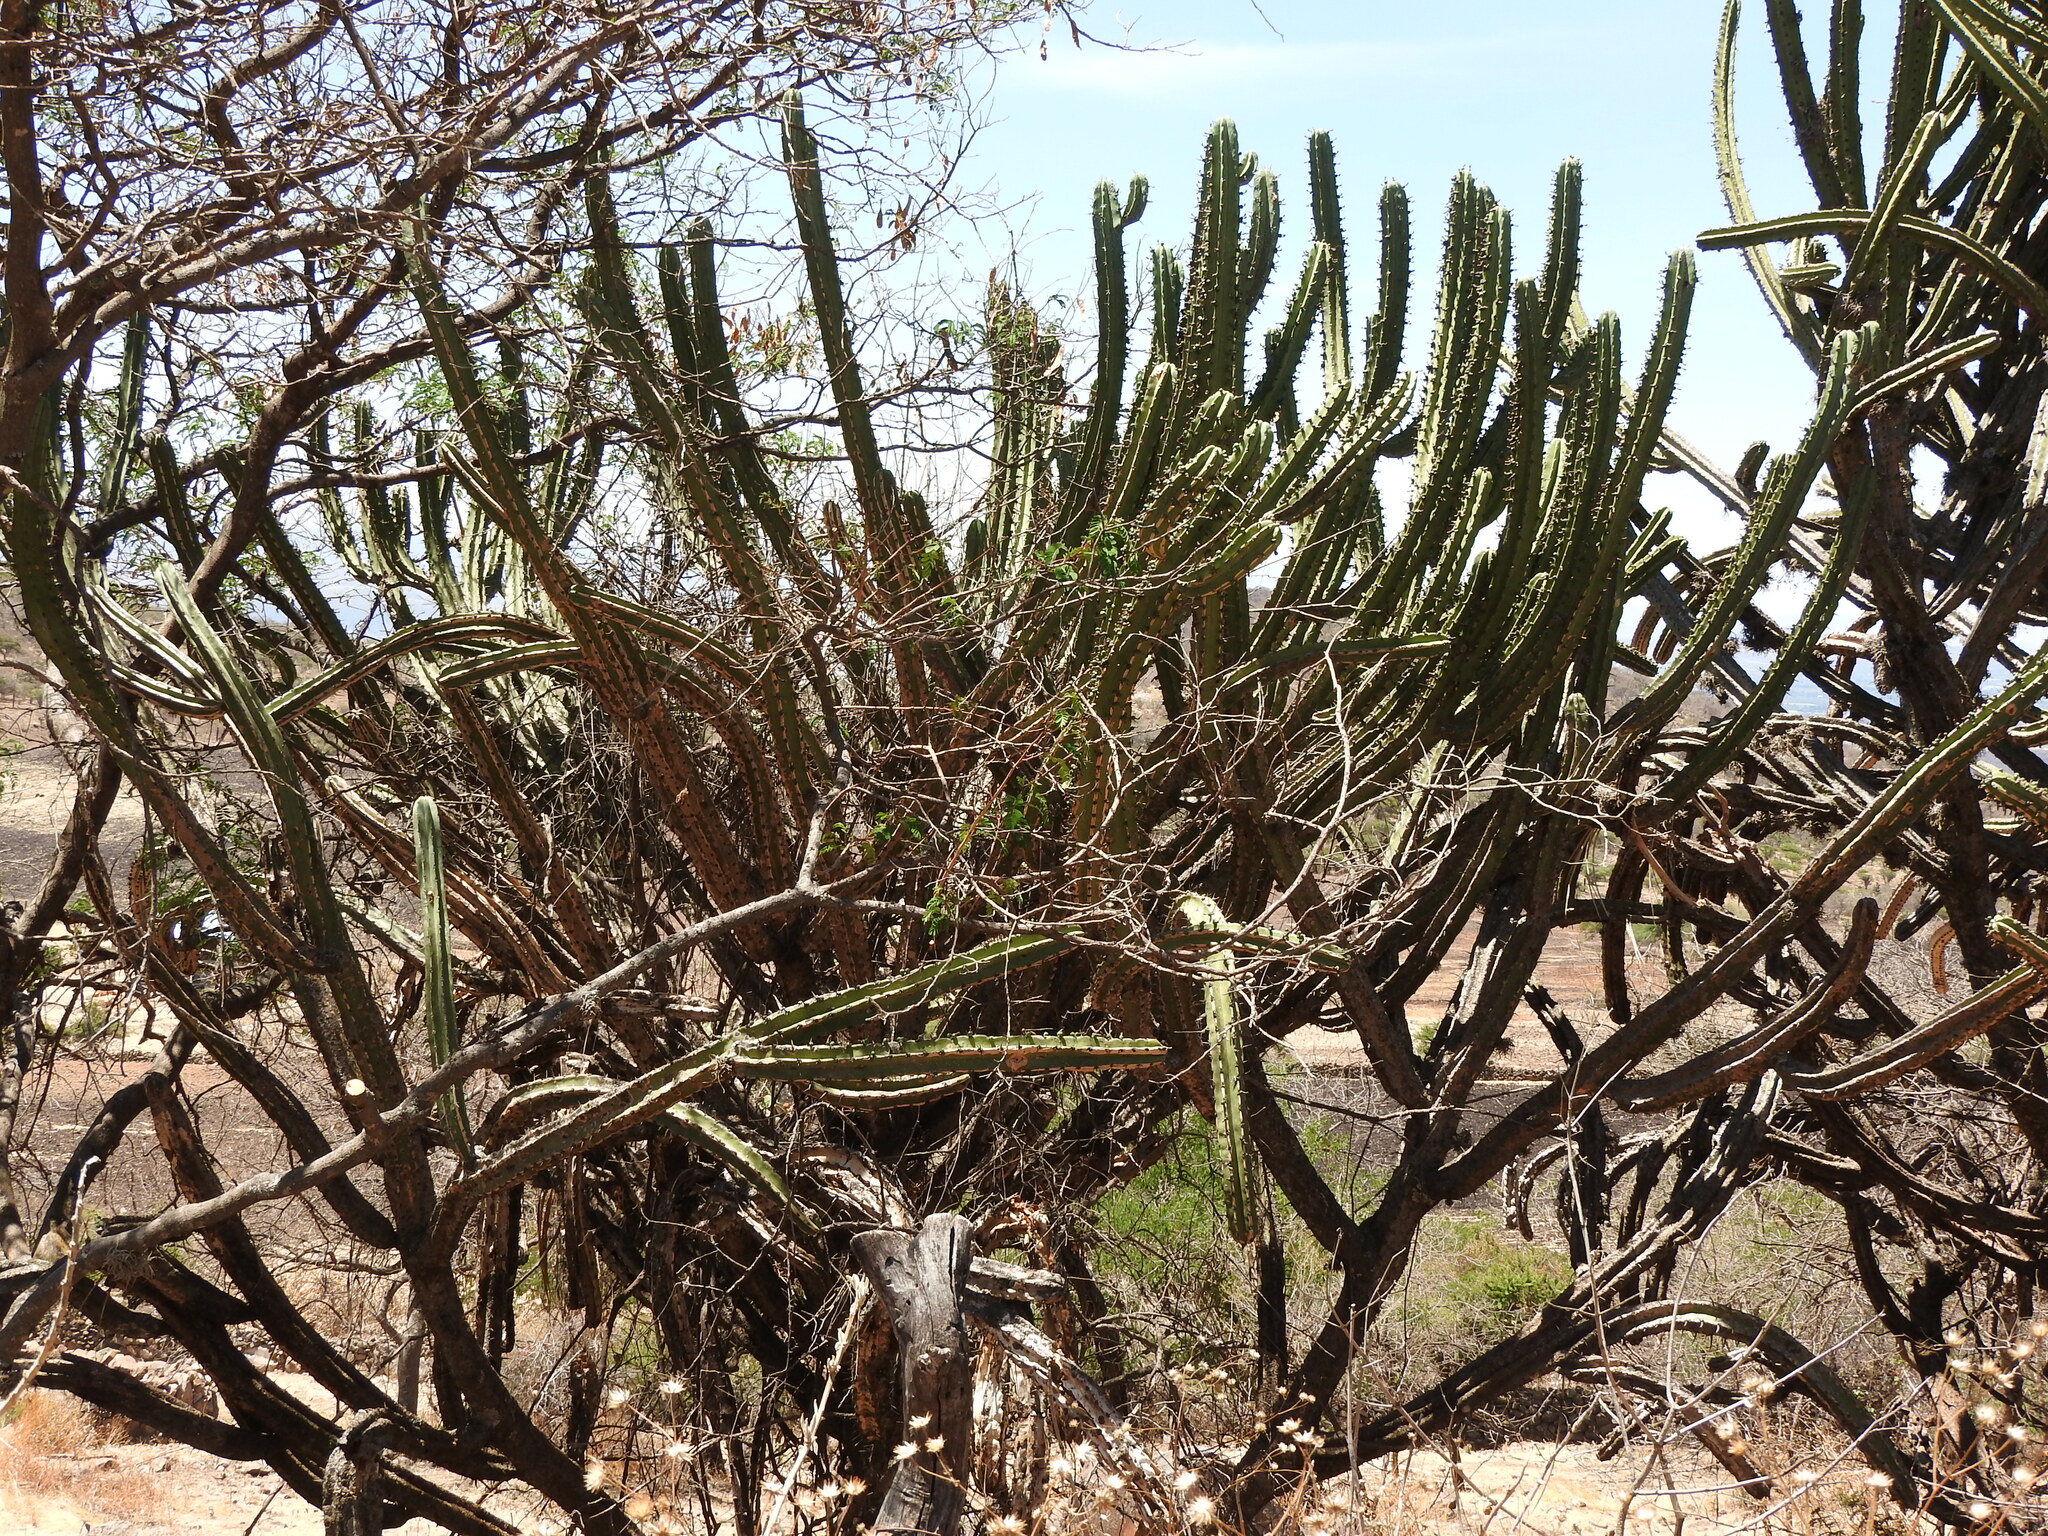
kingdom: Plantae
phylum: Tracheophyta
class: Magnoliopsida
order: Caryophyllales
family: Cactaceae
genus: Myrtillocactus
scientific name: Myrtillocactus geometrizans
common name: Bilberry cactus
